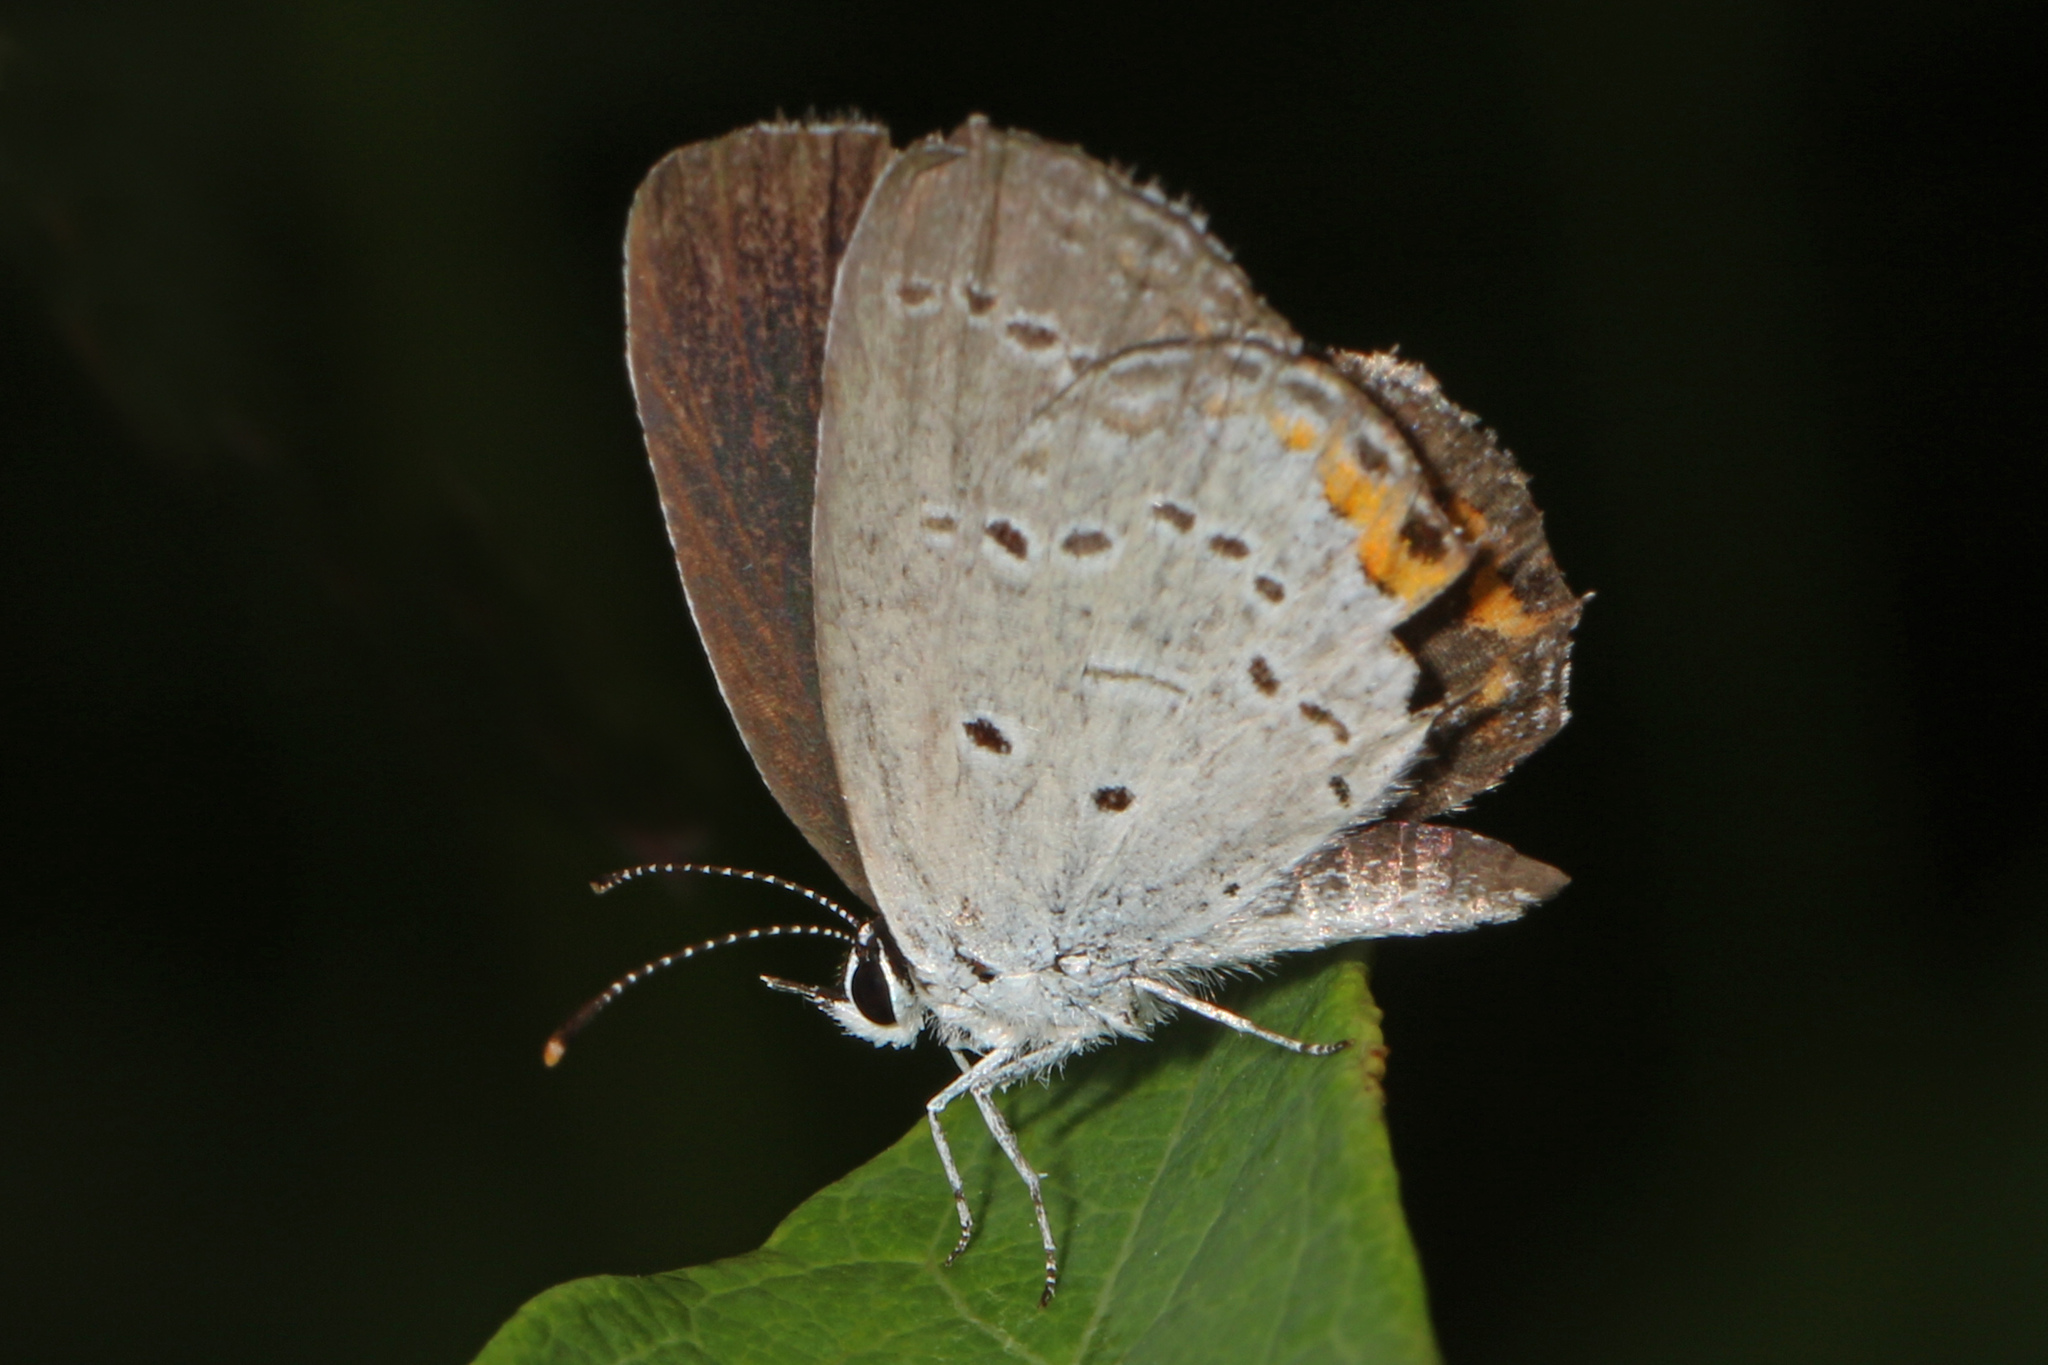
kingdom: Animalia
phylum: Arthropoda
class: Insecta
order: Lepidoptera
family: Lycaenidae
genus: Elkalyce
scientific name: Elkalyce comyntas
